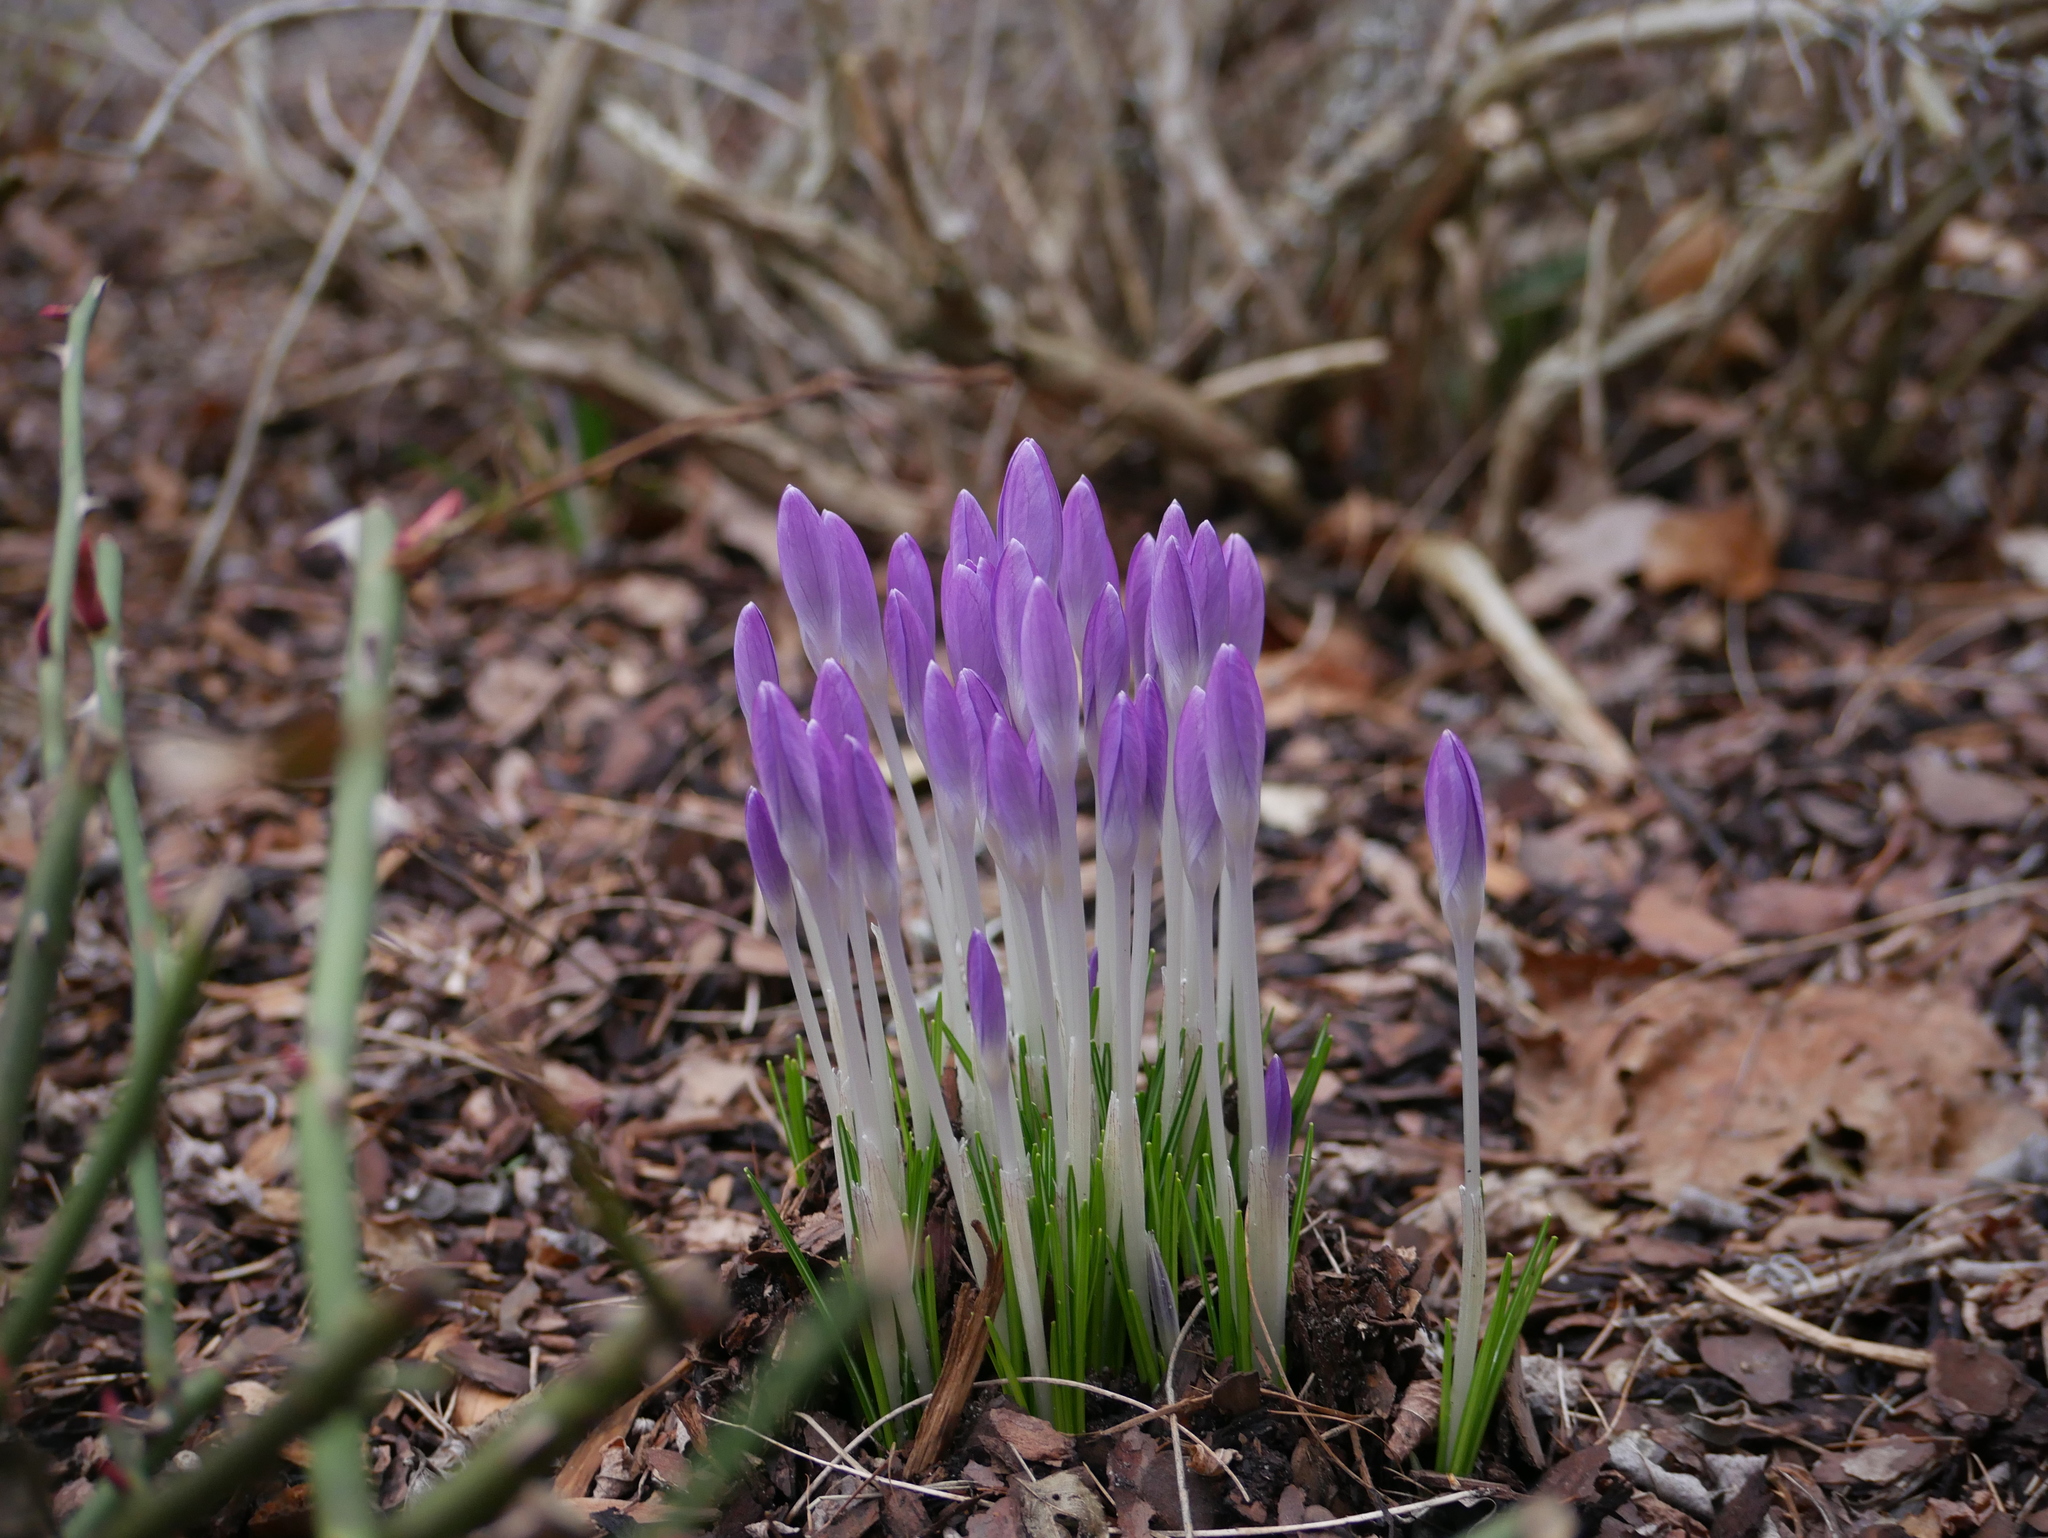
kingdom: Plantae
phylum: Tracheophyta
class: Liliopsida
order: Asparagales
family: Iridaceae
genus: Crocus
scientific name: Crocus tommasinianus
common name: Early crocus
